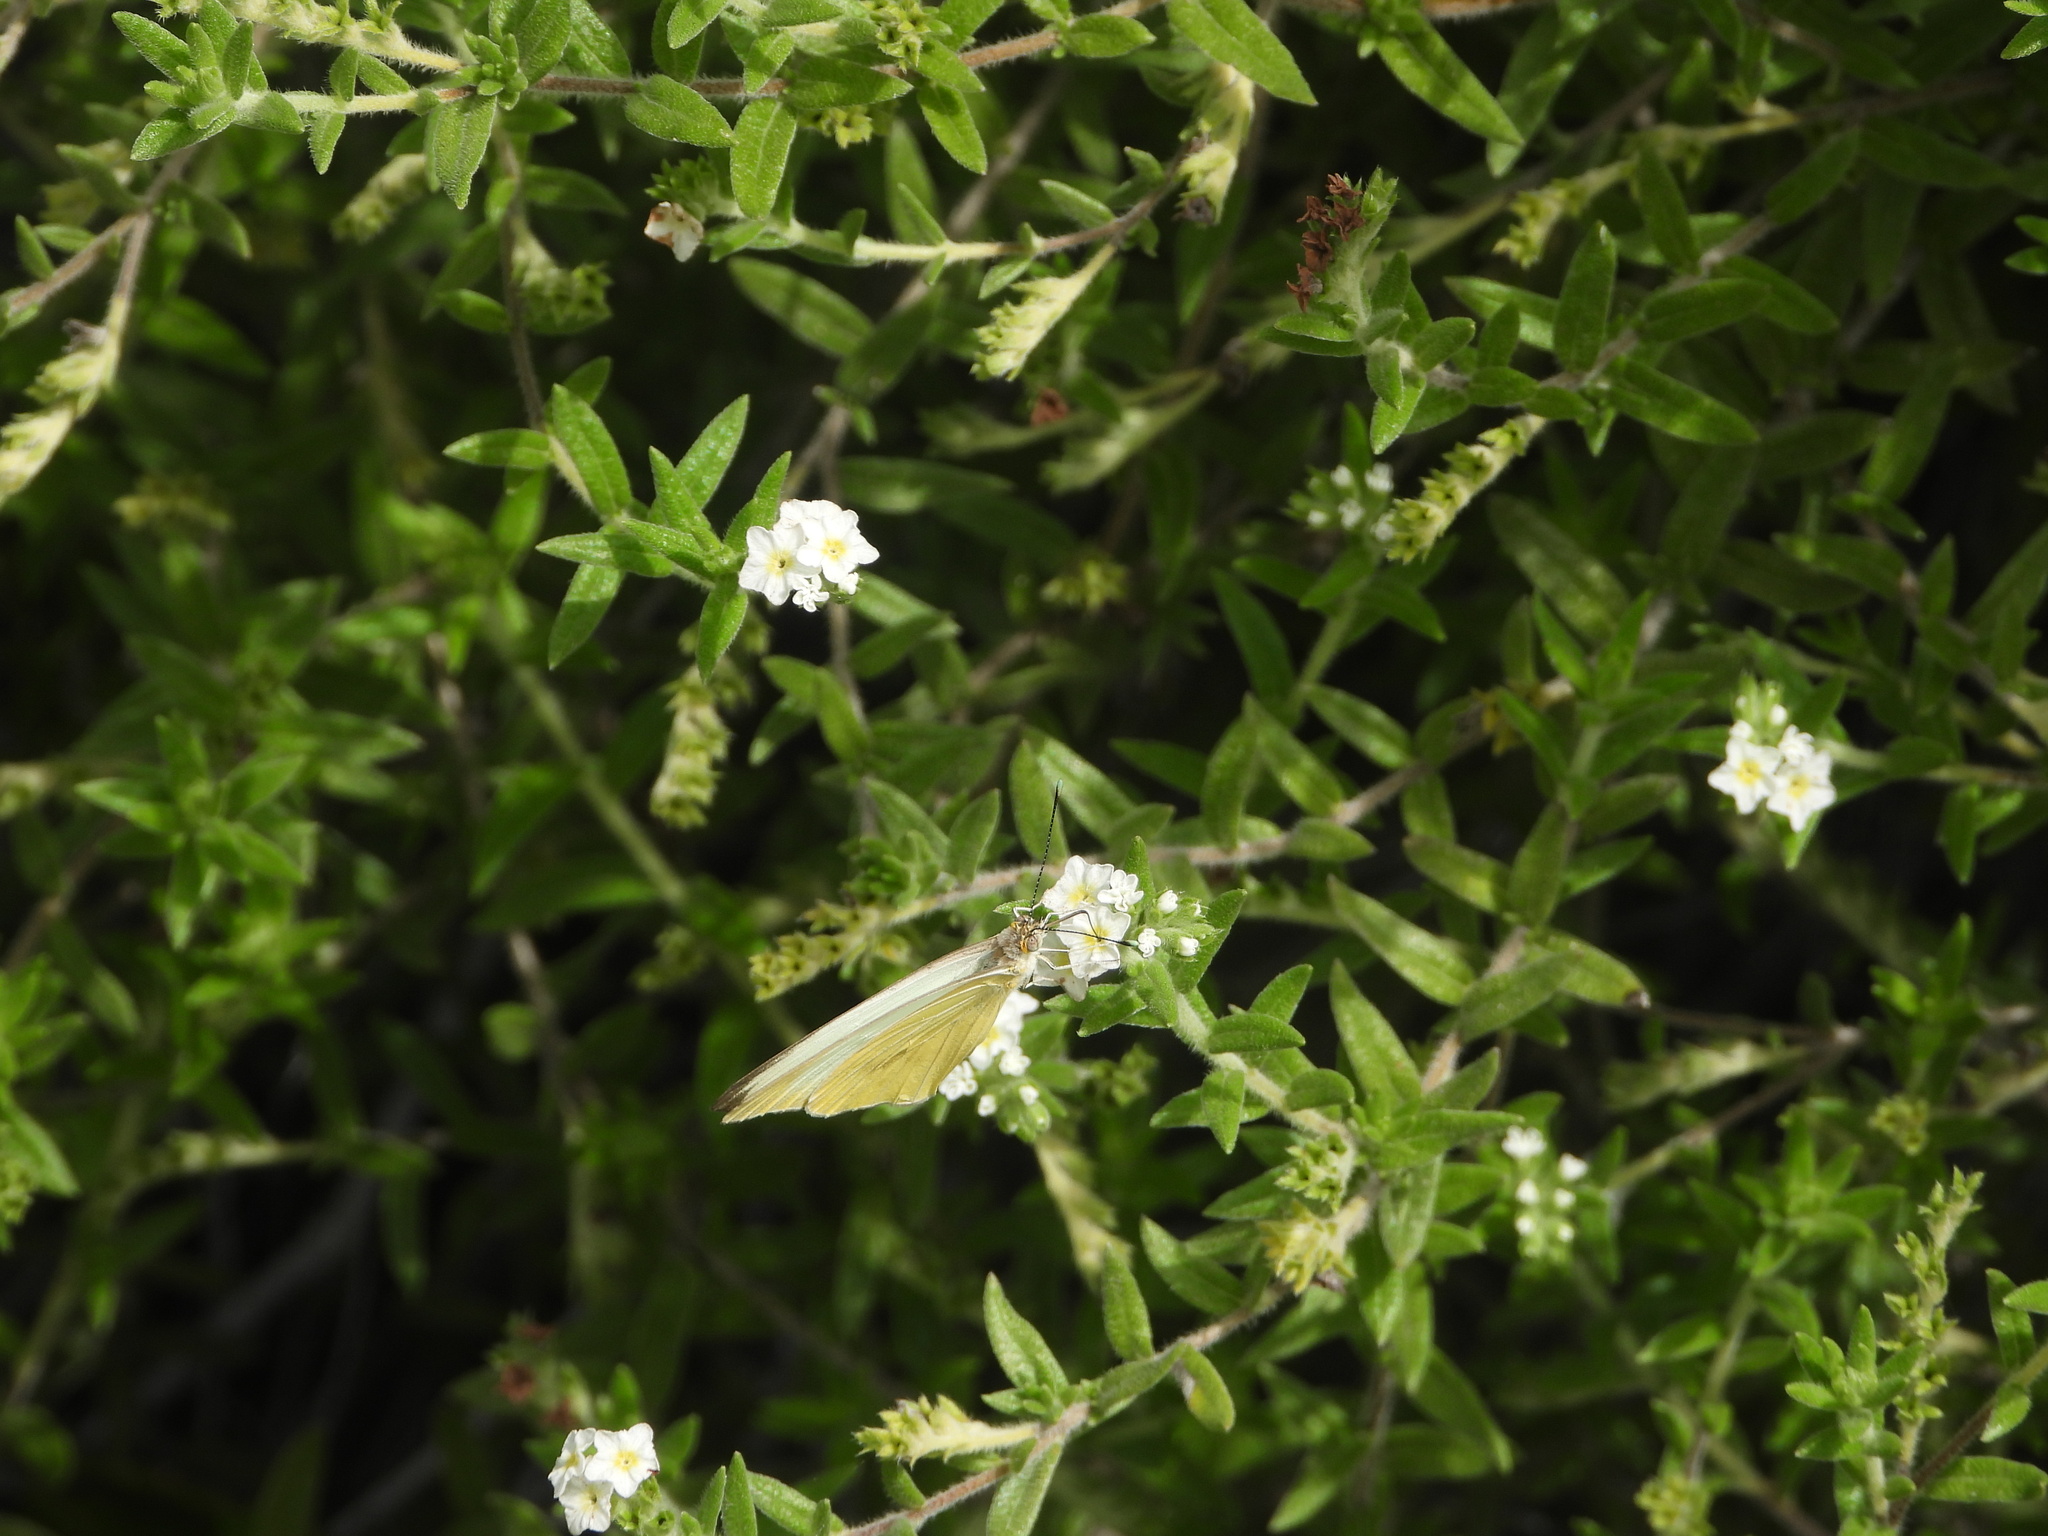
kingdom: Animalia
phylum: Arthropoda
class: Insecta
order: Lepidoptera
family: Pieridae
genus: Ascia
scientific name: Ascia monuste
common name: Great southern white
